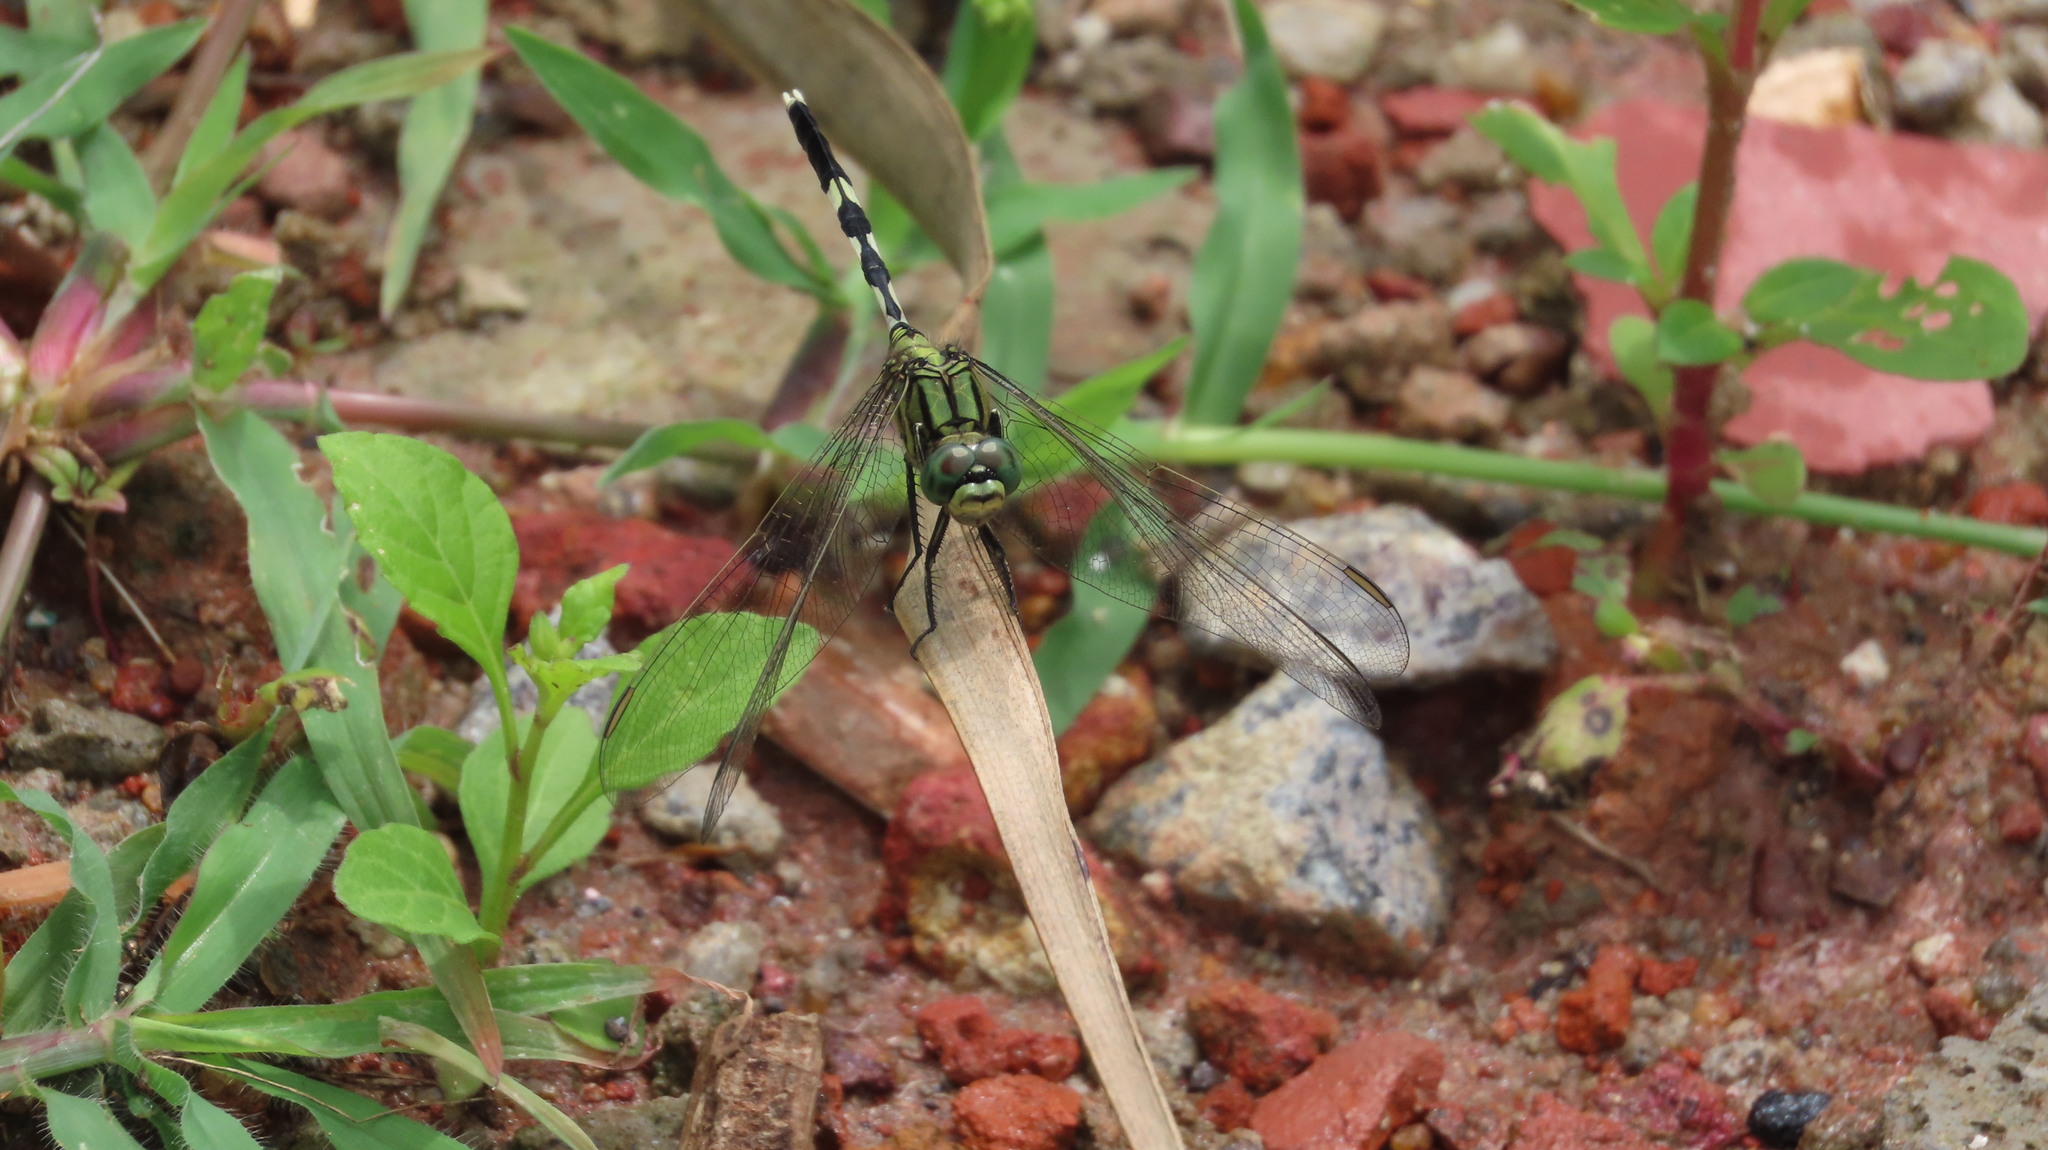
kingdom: Animalia
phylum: Arthropoda
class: Insecta
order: Odonata
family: Libellulidae
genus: Orthetrum
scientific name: Orthetrum sabina
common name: Slender skimmer
